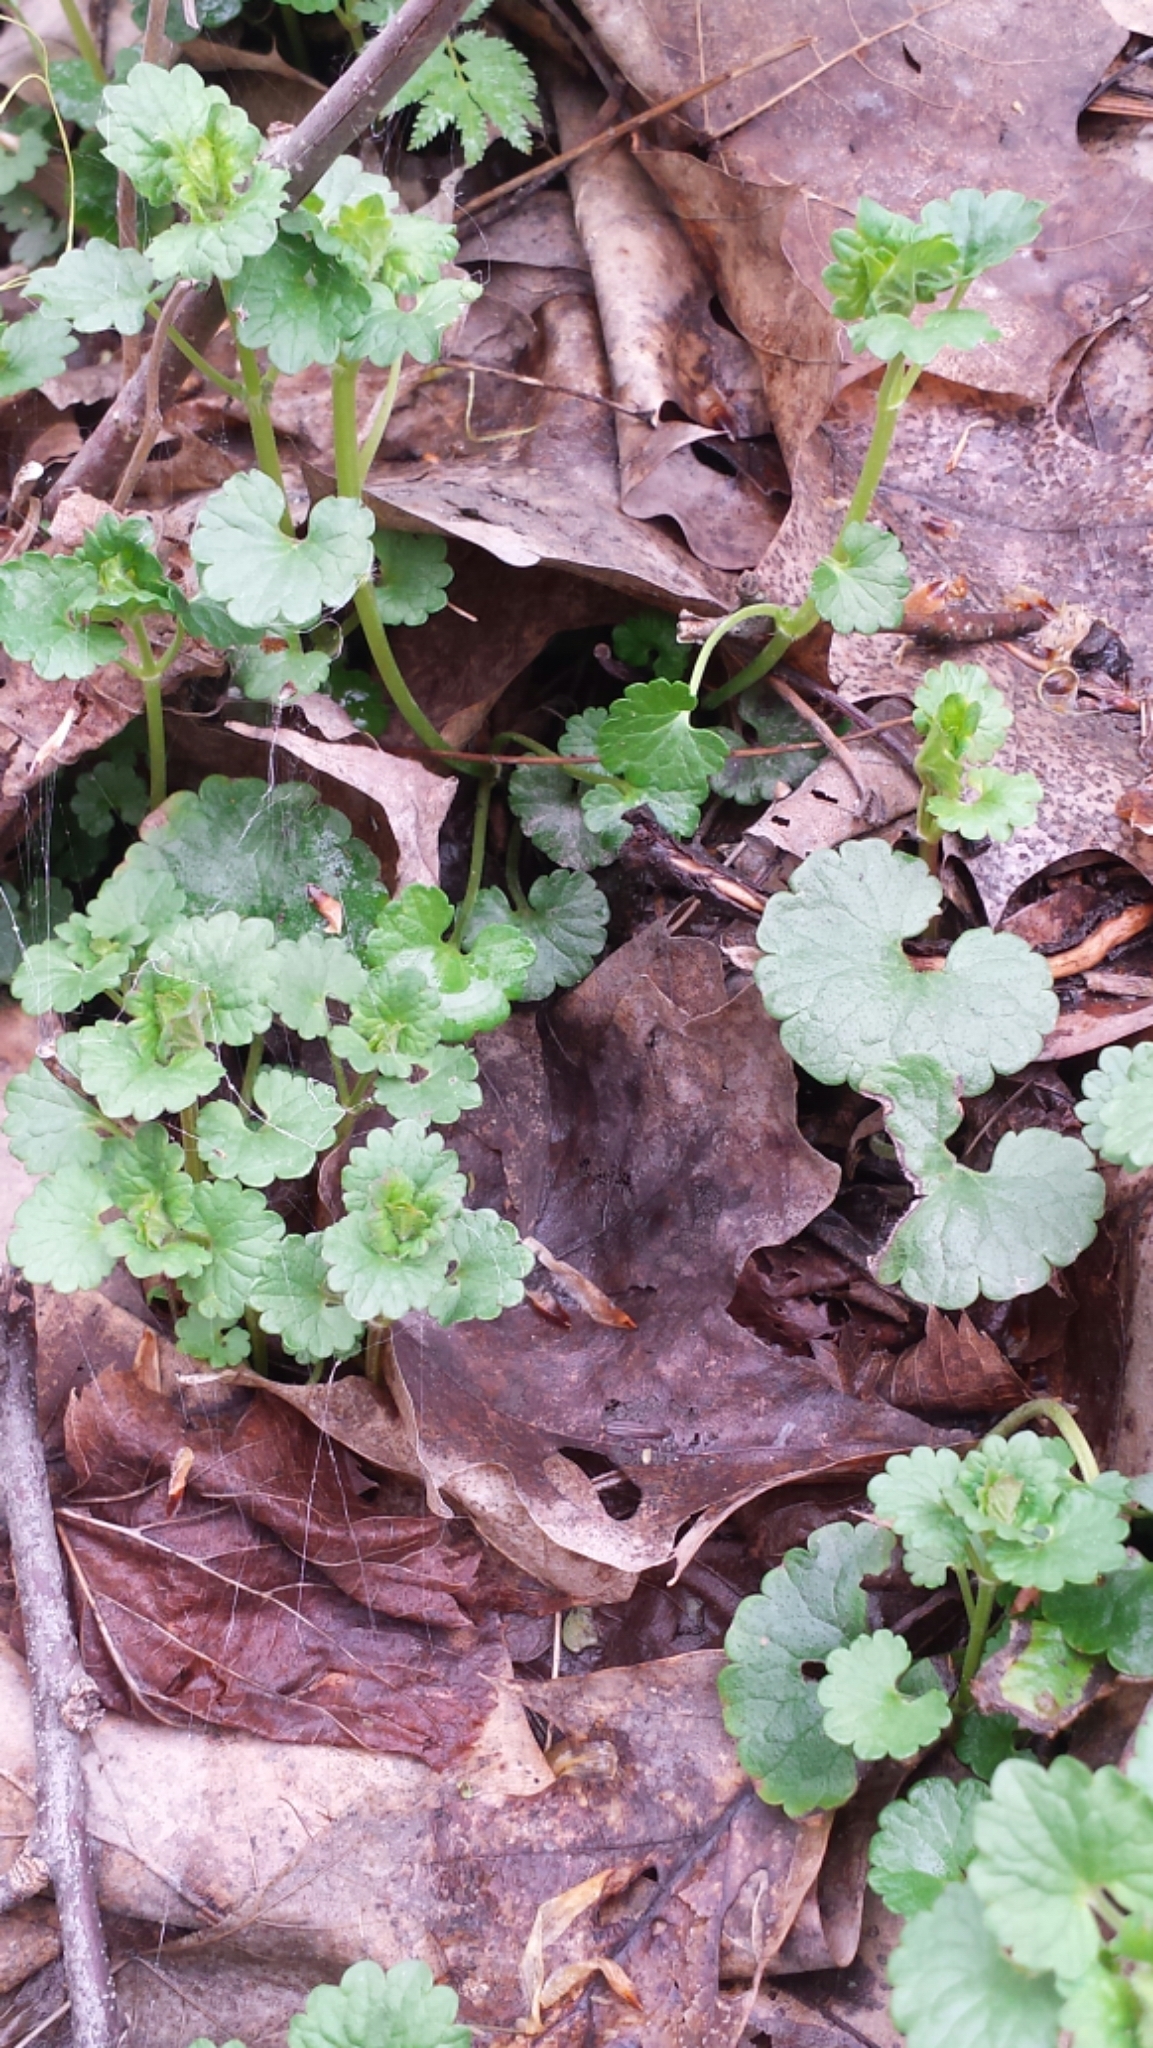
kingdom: Plantae
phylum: Tracheophyta
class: Magnoliopsida
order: Lamiales
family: Lamiaceae
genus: Glechoma
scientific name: Glechoma hederacea
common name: Ground ivy
